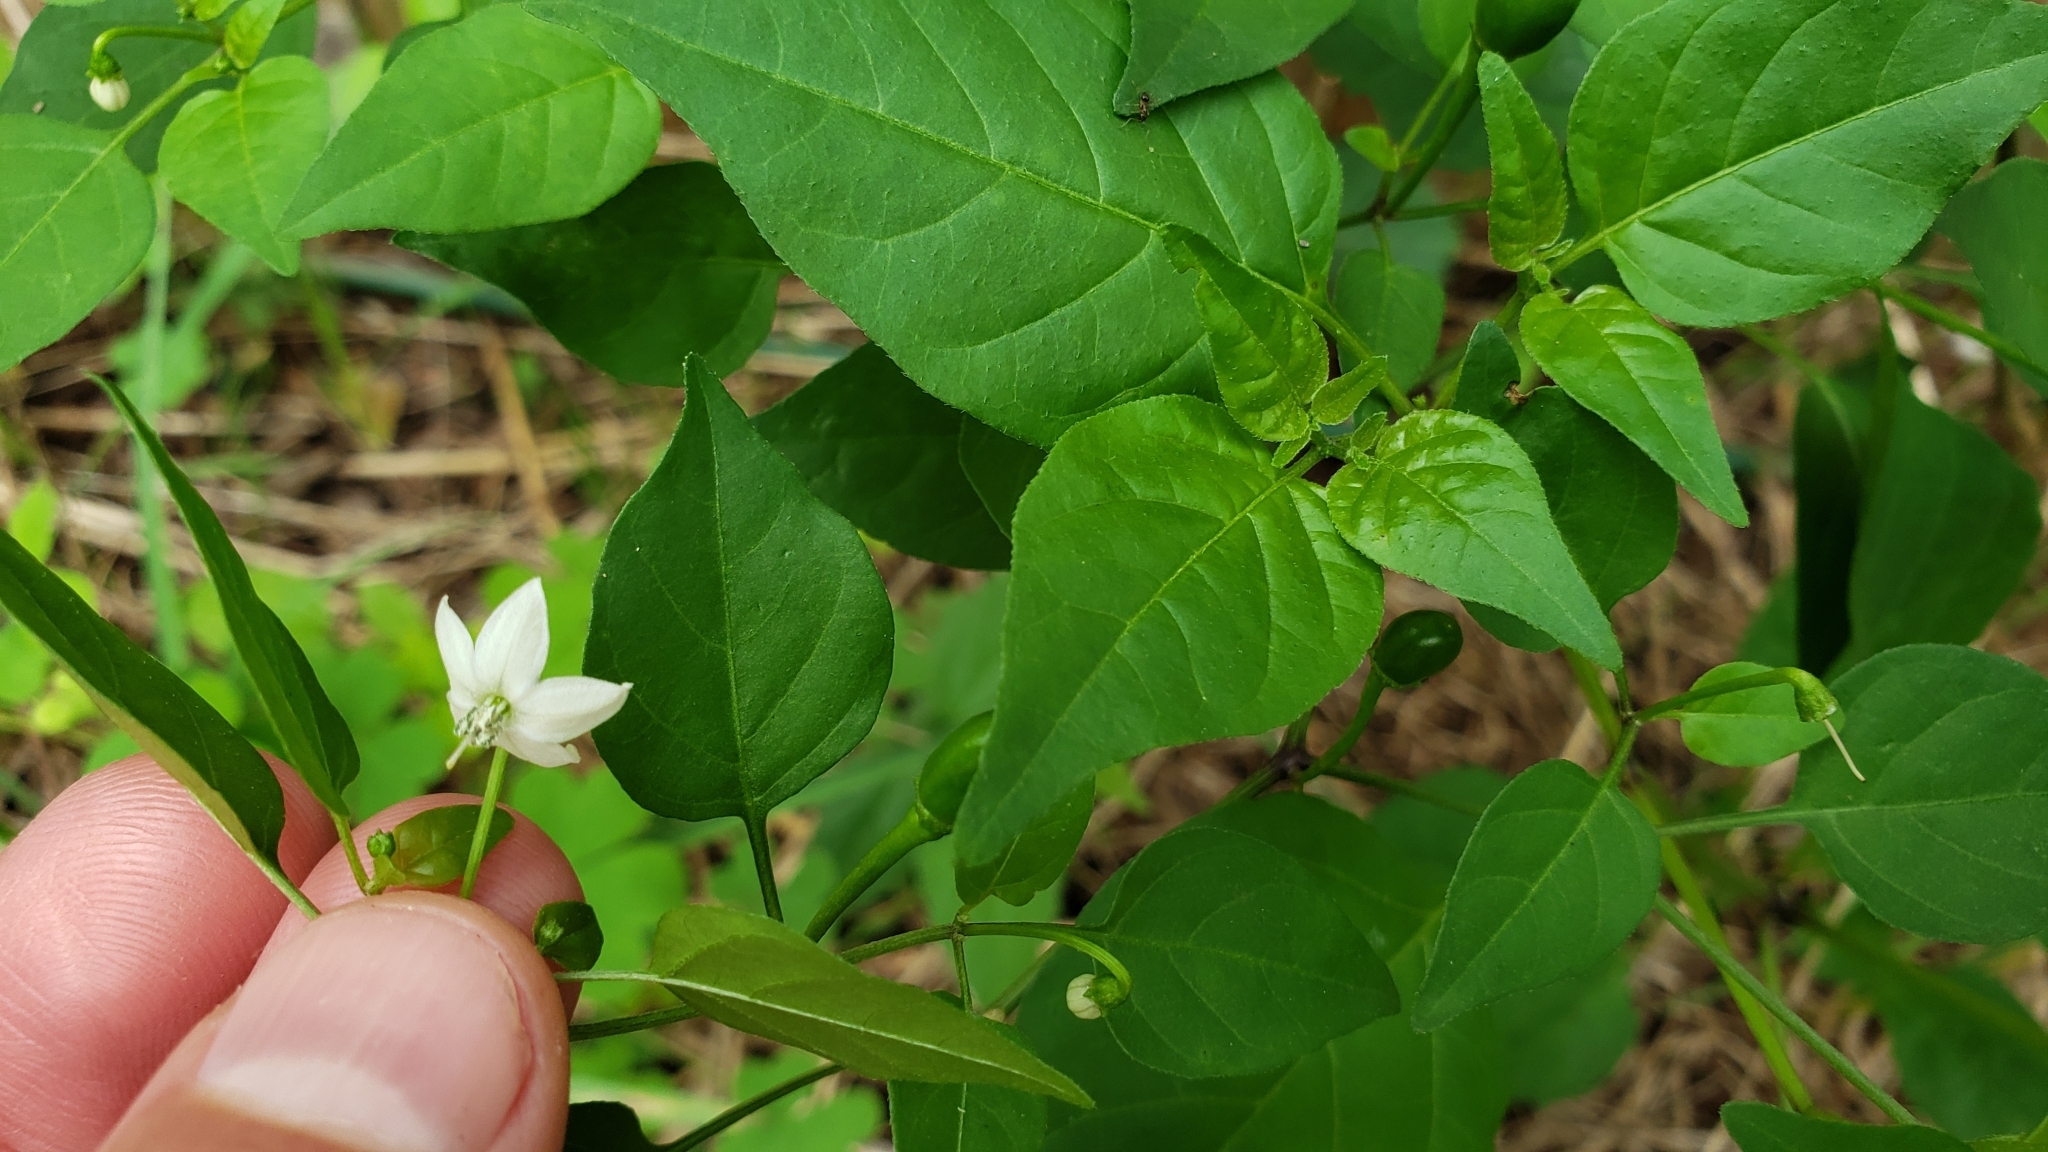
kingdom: Plantae
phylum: Tracheophyta
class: Magnoliopsida
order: Solanales
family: Solanaceae
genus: Capsicum
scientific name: Capsicum annuum
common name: Sweet pepper
